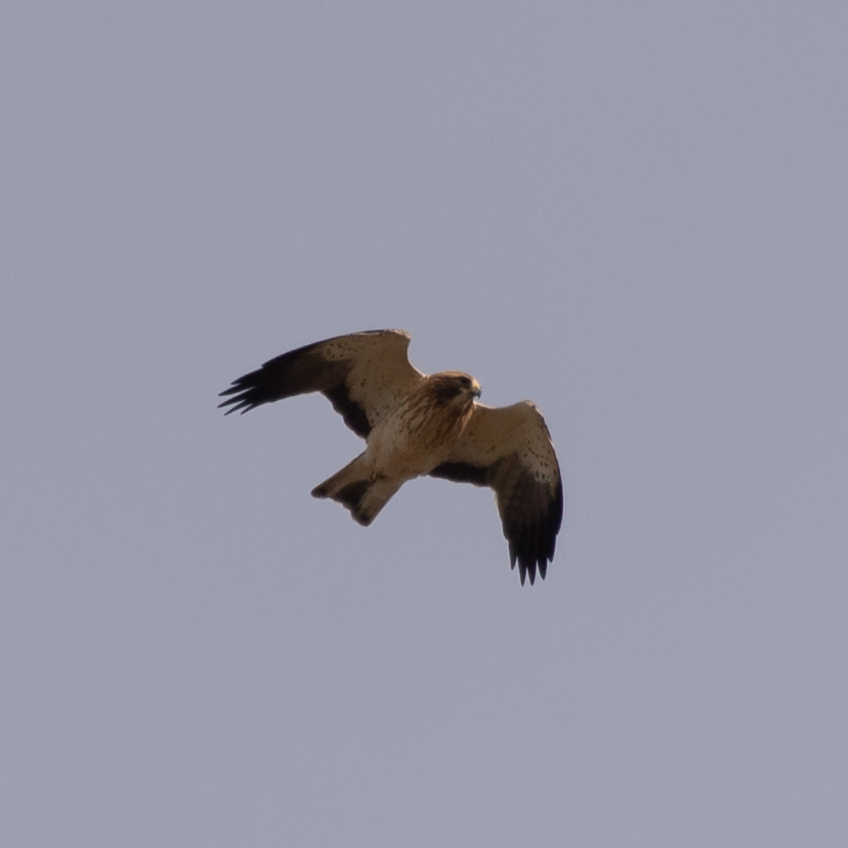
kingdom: Animalia
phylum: Chordata
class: Aves
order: Accipitriformes
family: Accipitridae
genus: Hieraaetus
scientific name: Hieraaetus pennatus
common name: Booted eagle
